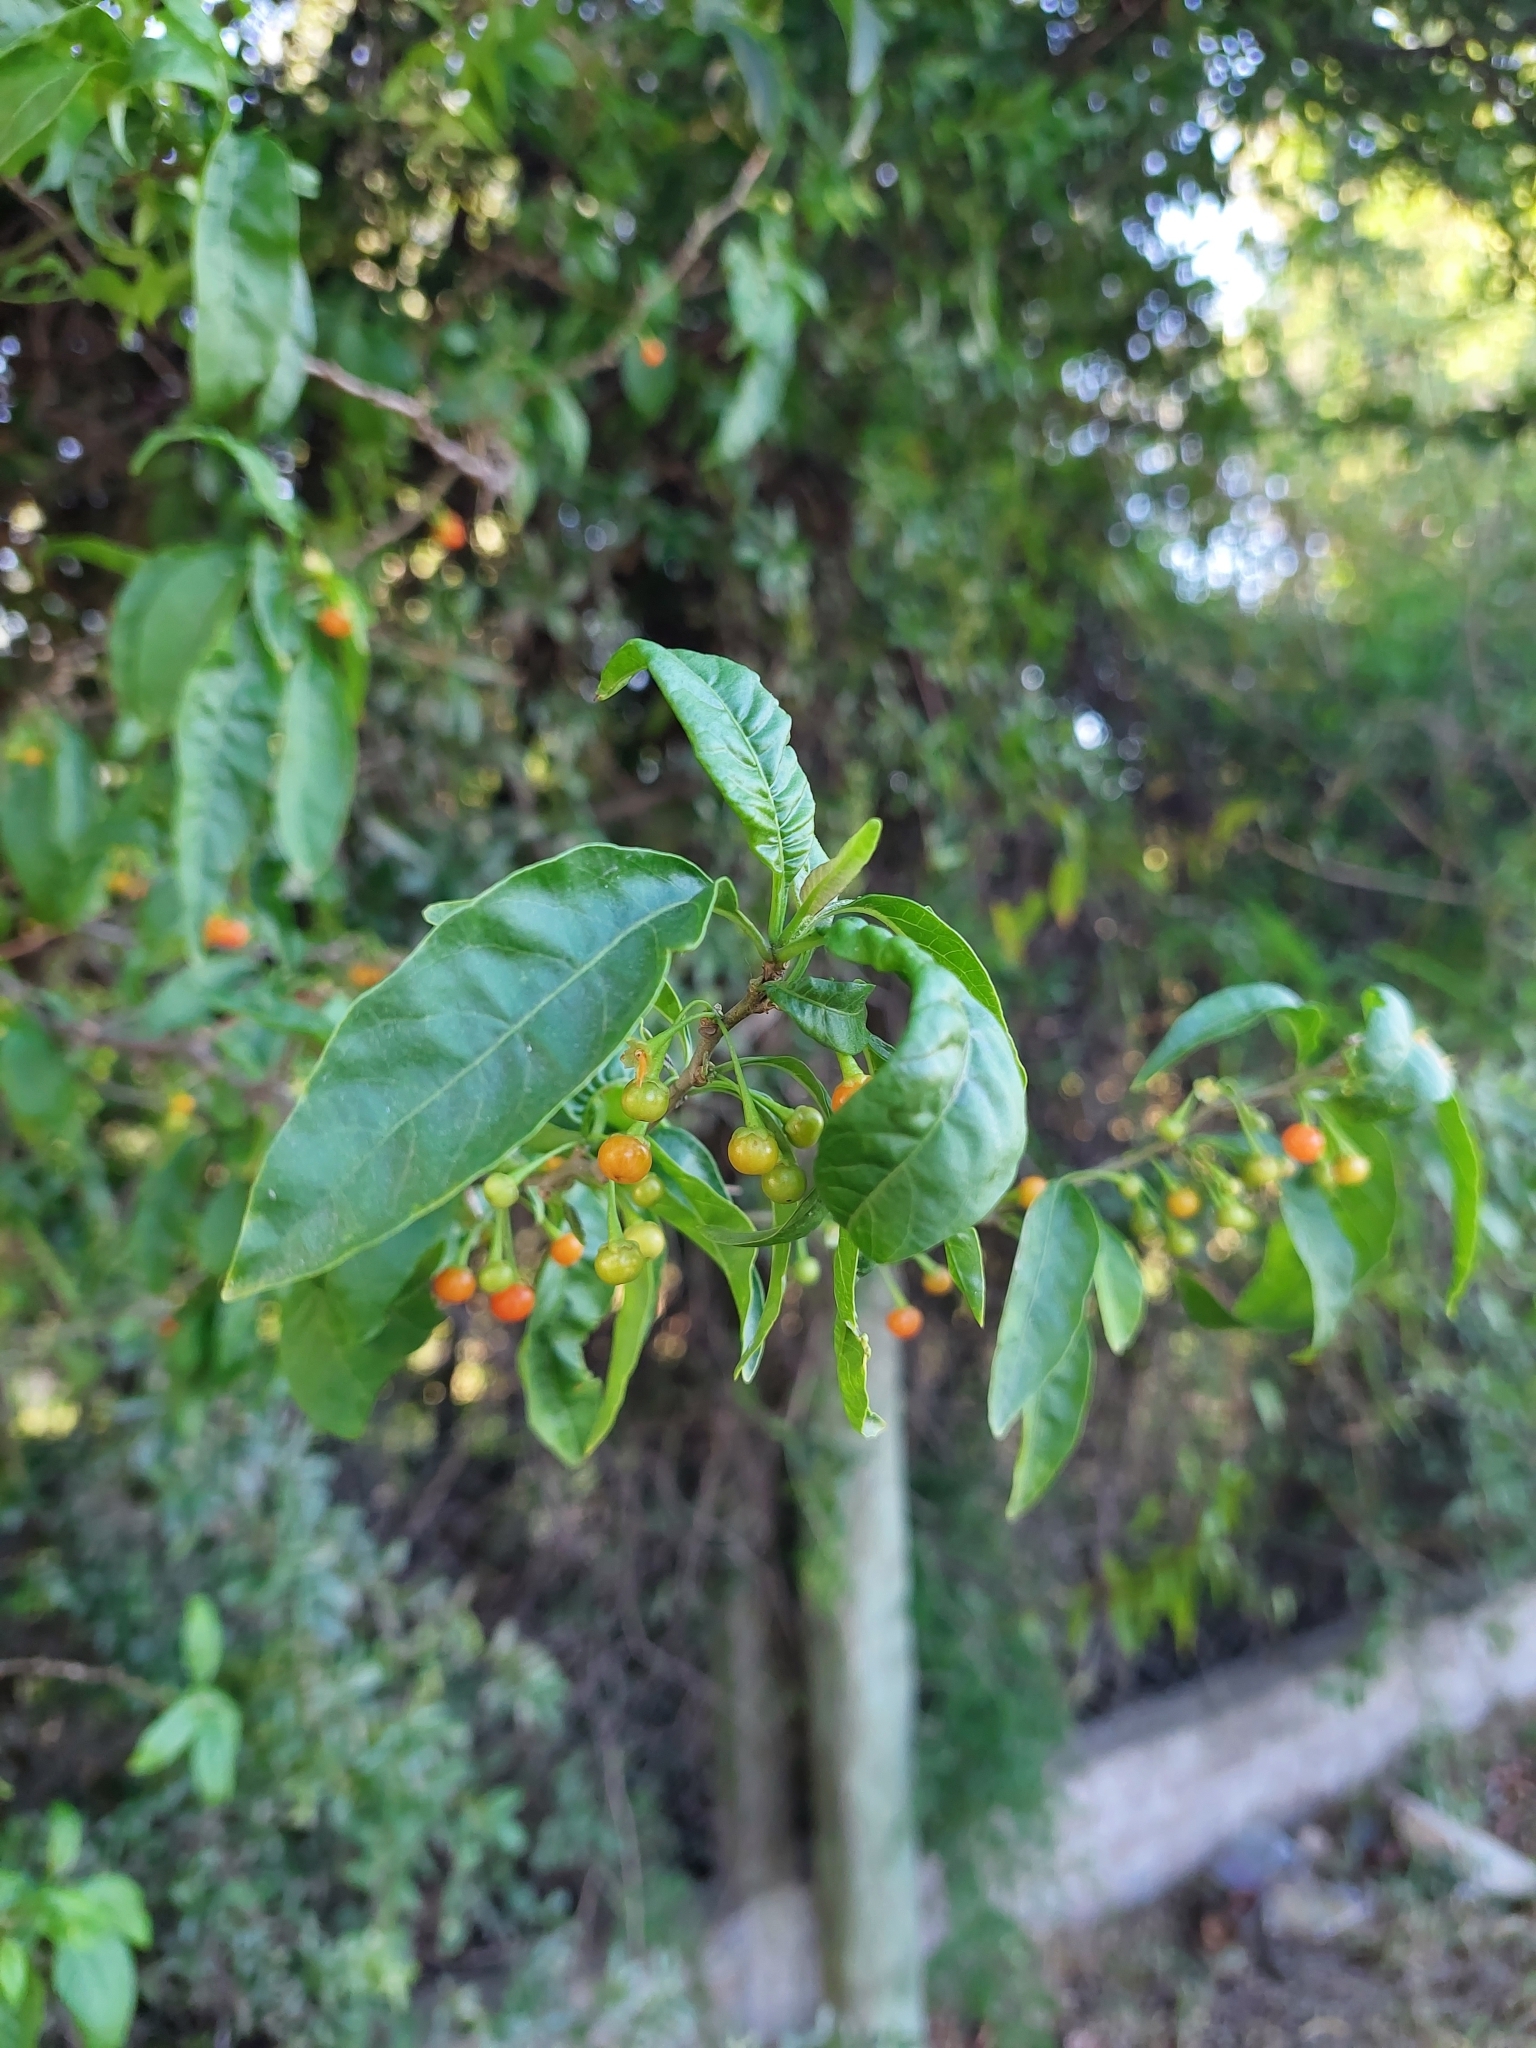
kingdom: Plantae
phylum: Tracheophyta
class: Magnoliopsida
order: Solanales
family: Solanaceae
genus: Vassobia
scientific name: Vassobia breviflora
